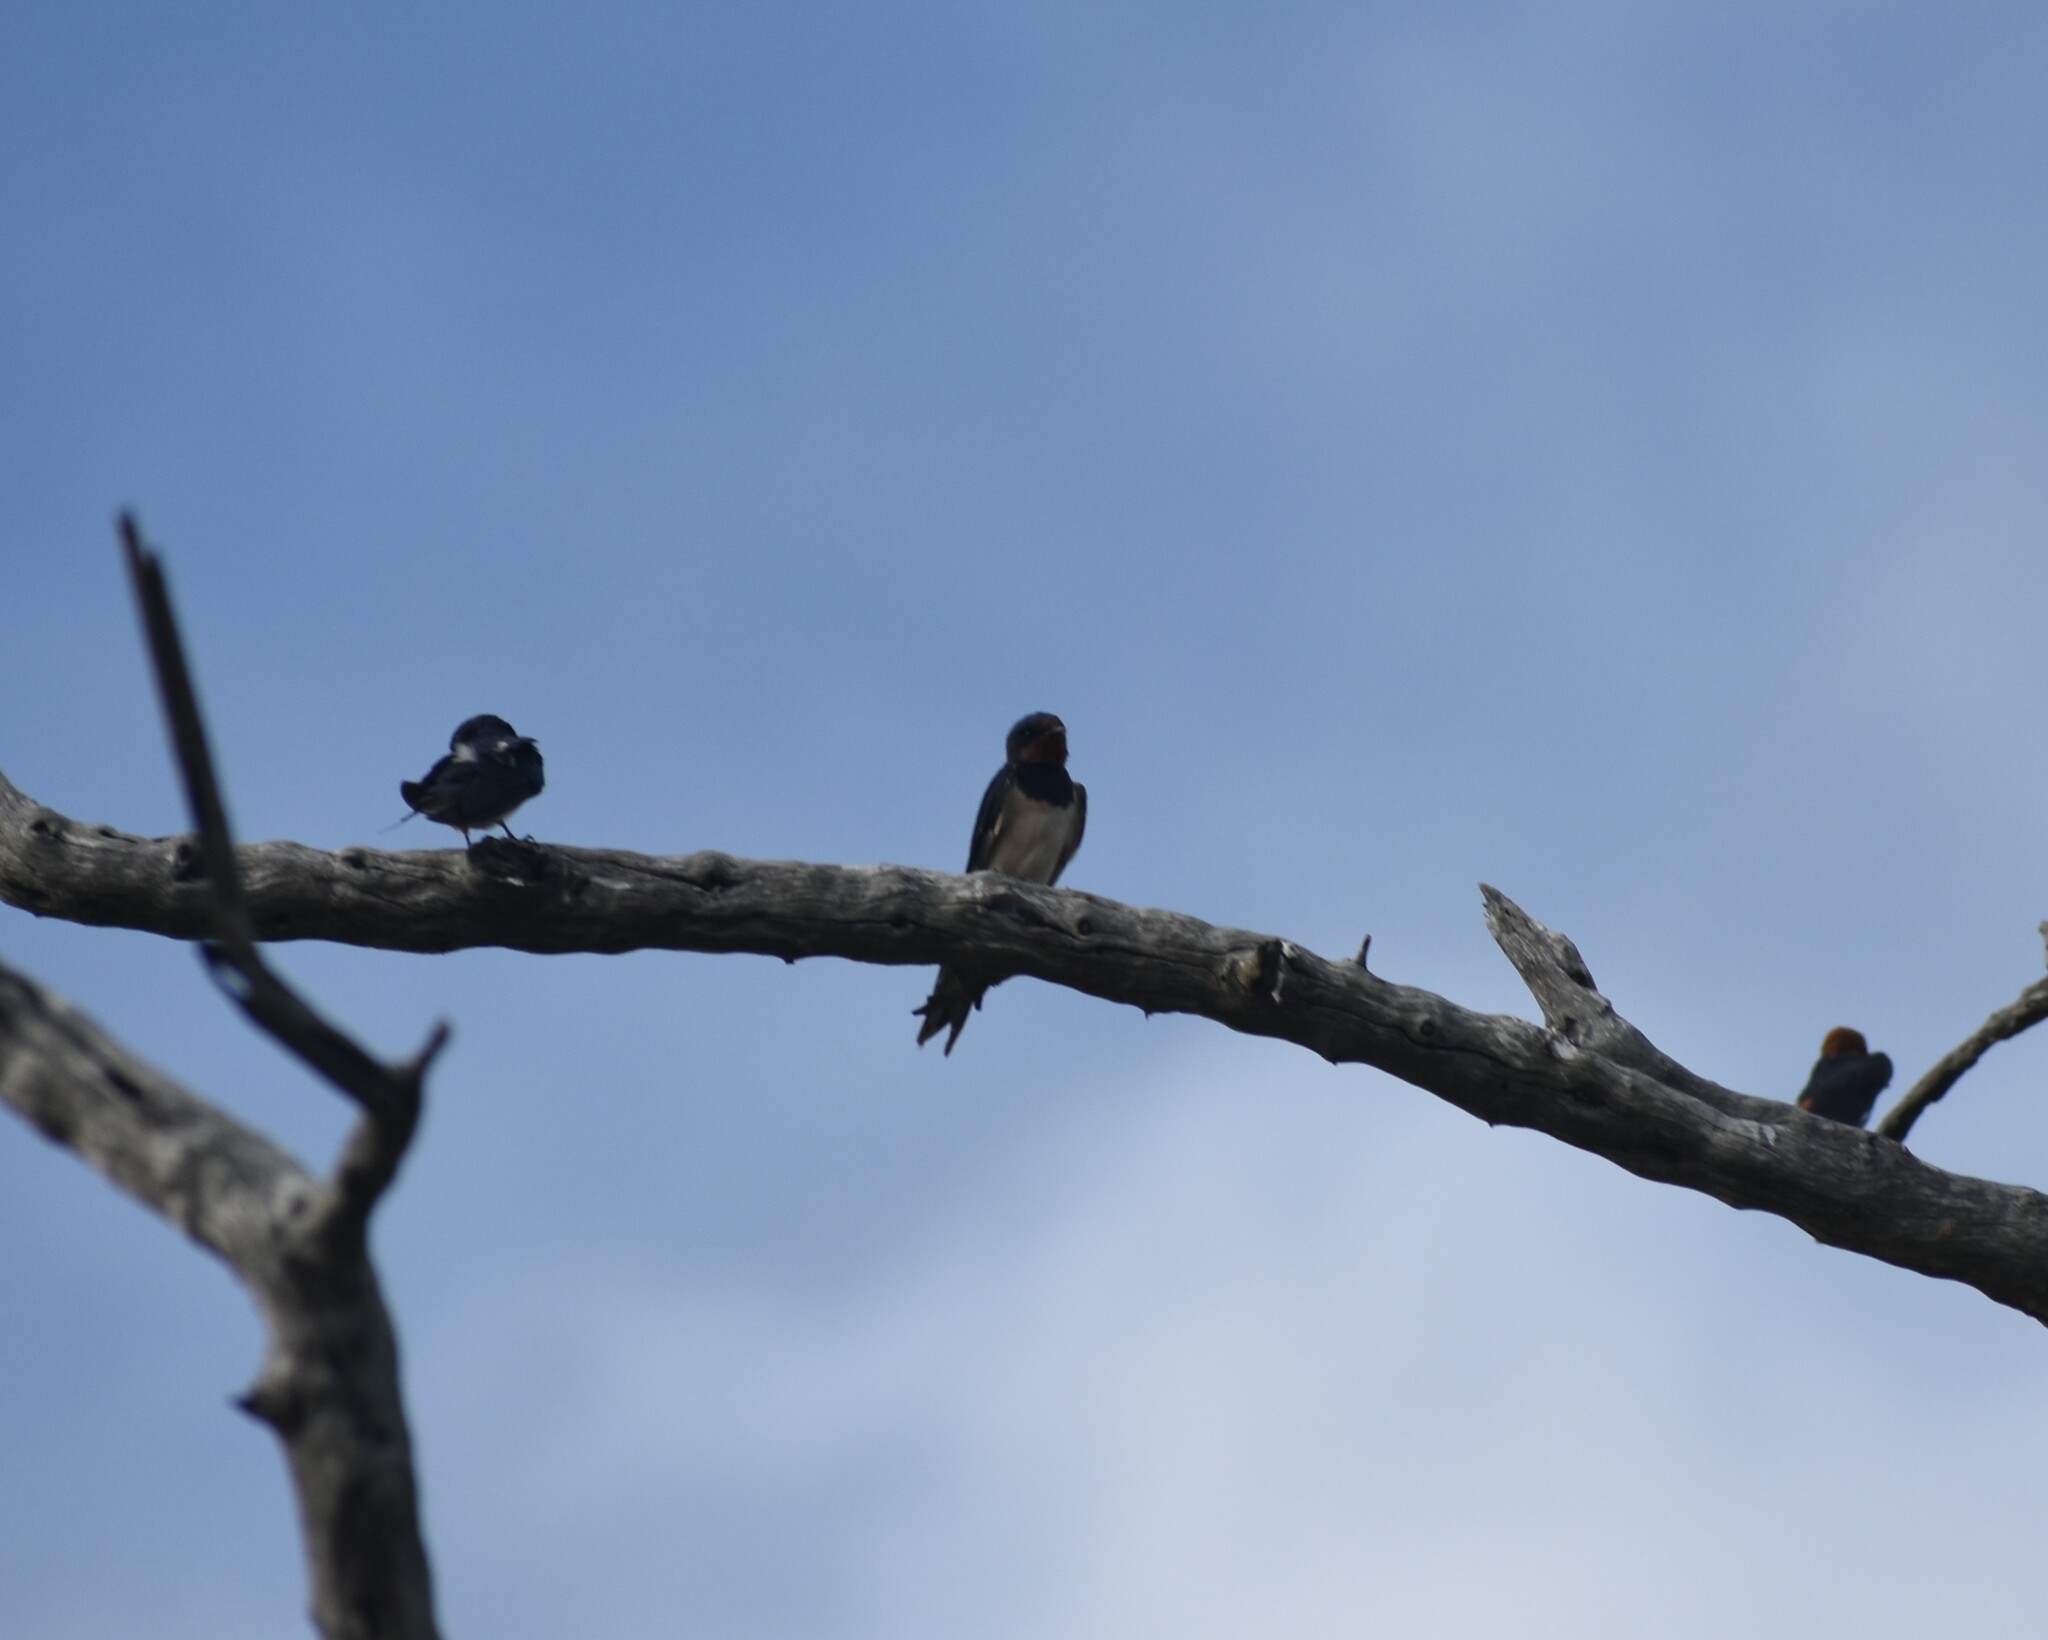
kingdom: Animalia
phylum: Chordata
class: Aves
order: Passeriformes
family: Hirundinidae
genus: Hirundo
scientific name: Hirundo rustica
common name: Barn swallow
